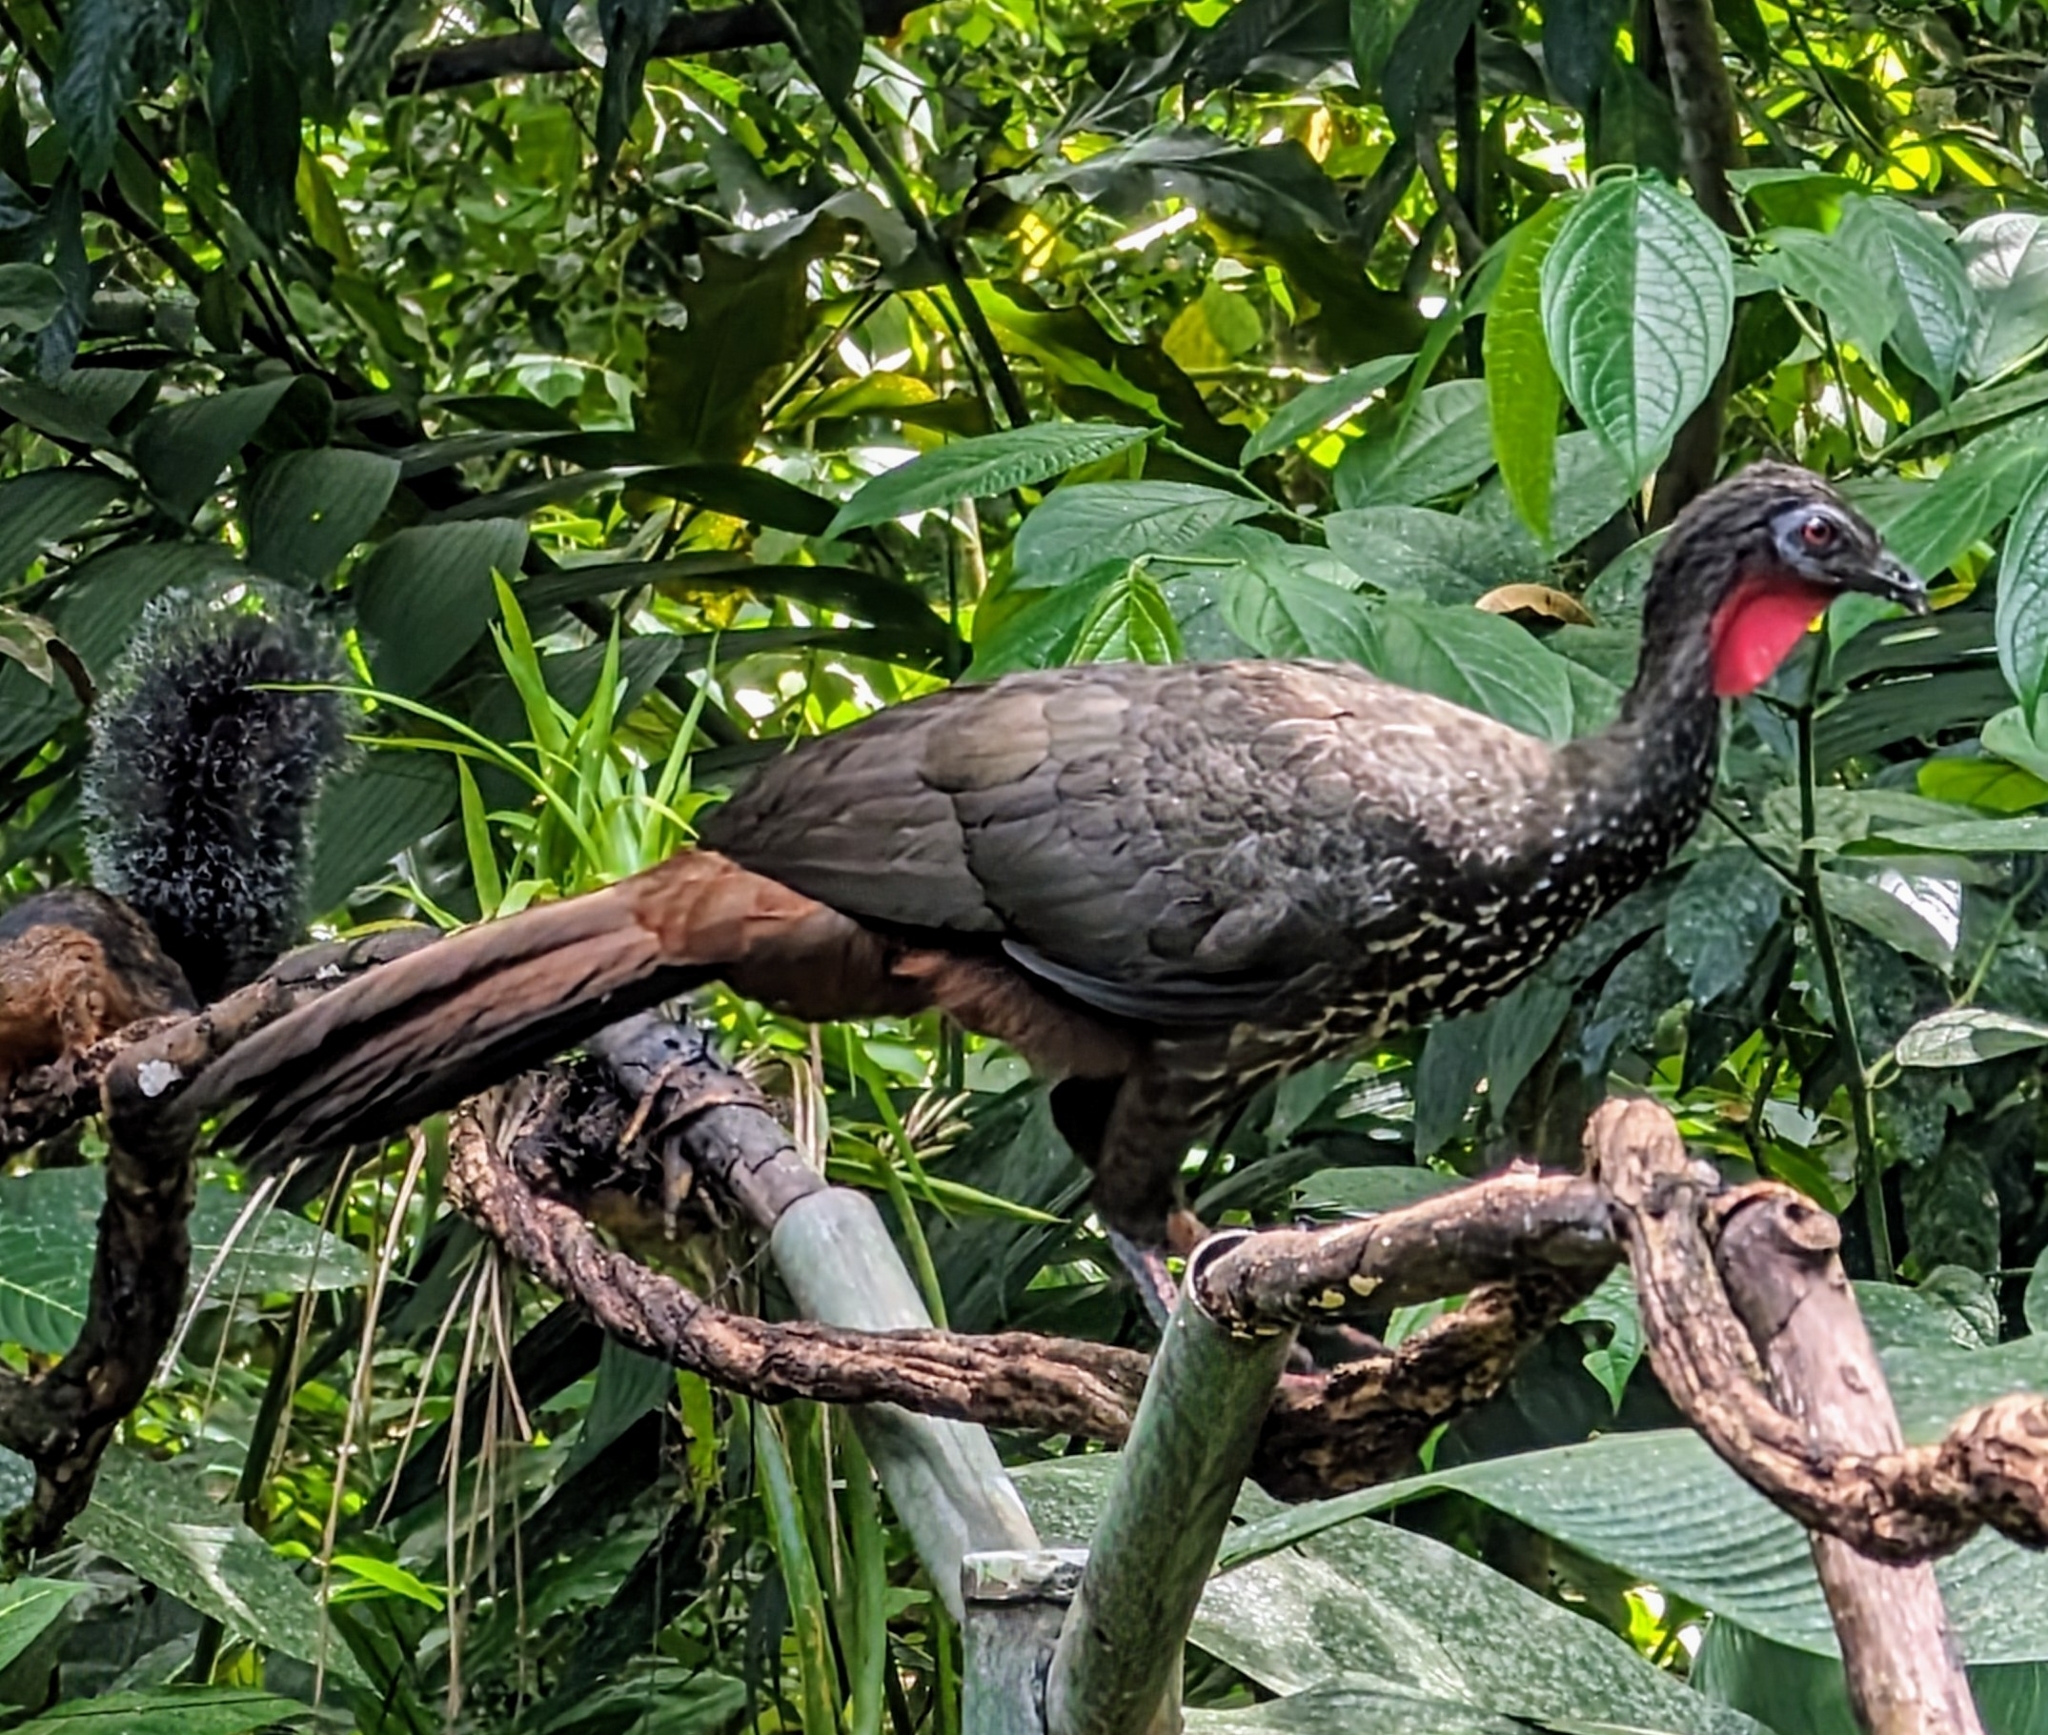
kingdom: Animalia
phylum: Chordata
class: Aves
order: Galliformes
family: Cracidae
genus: Penelope
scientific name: Penelope purpurascens
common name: Crested guan
